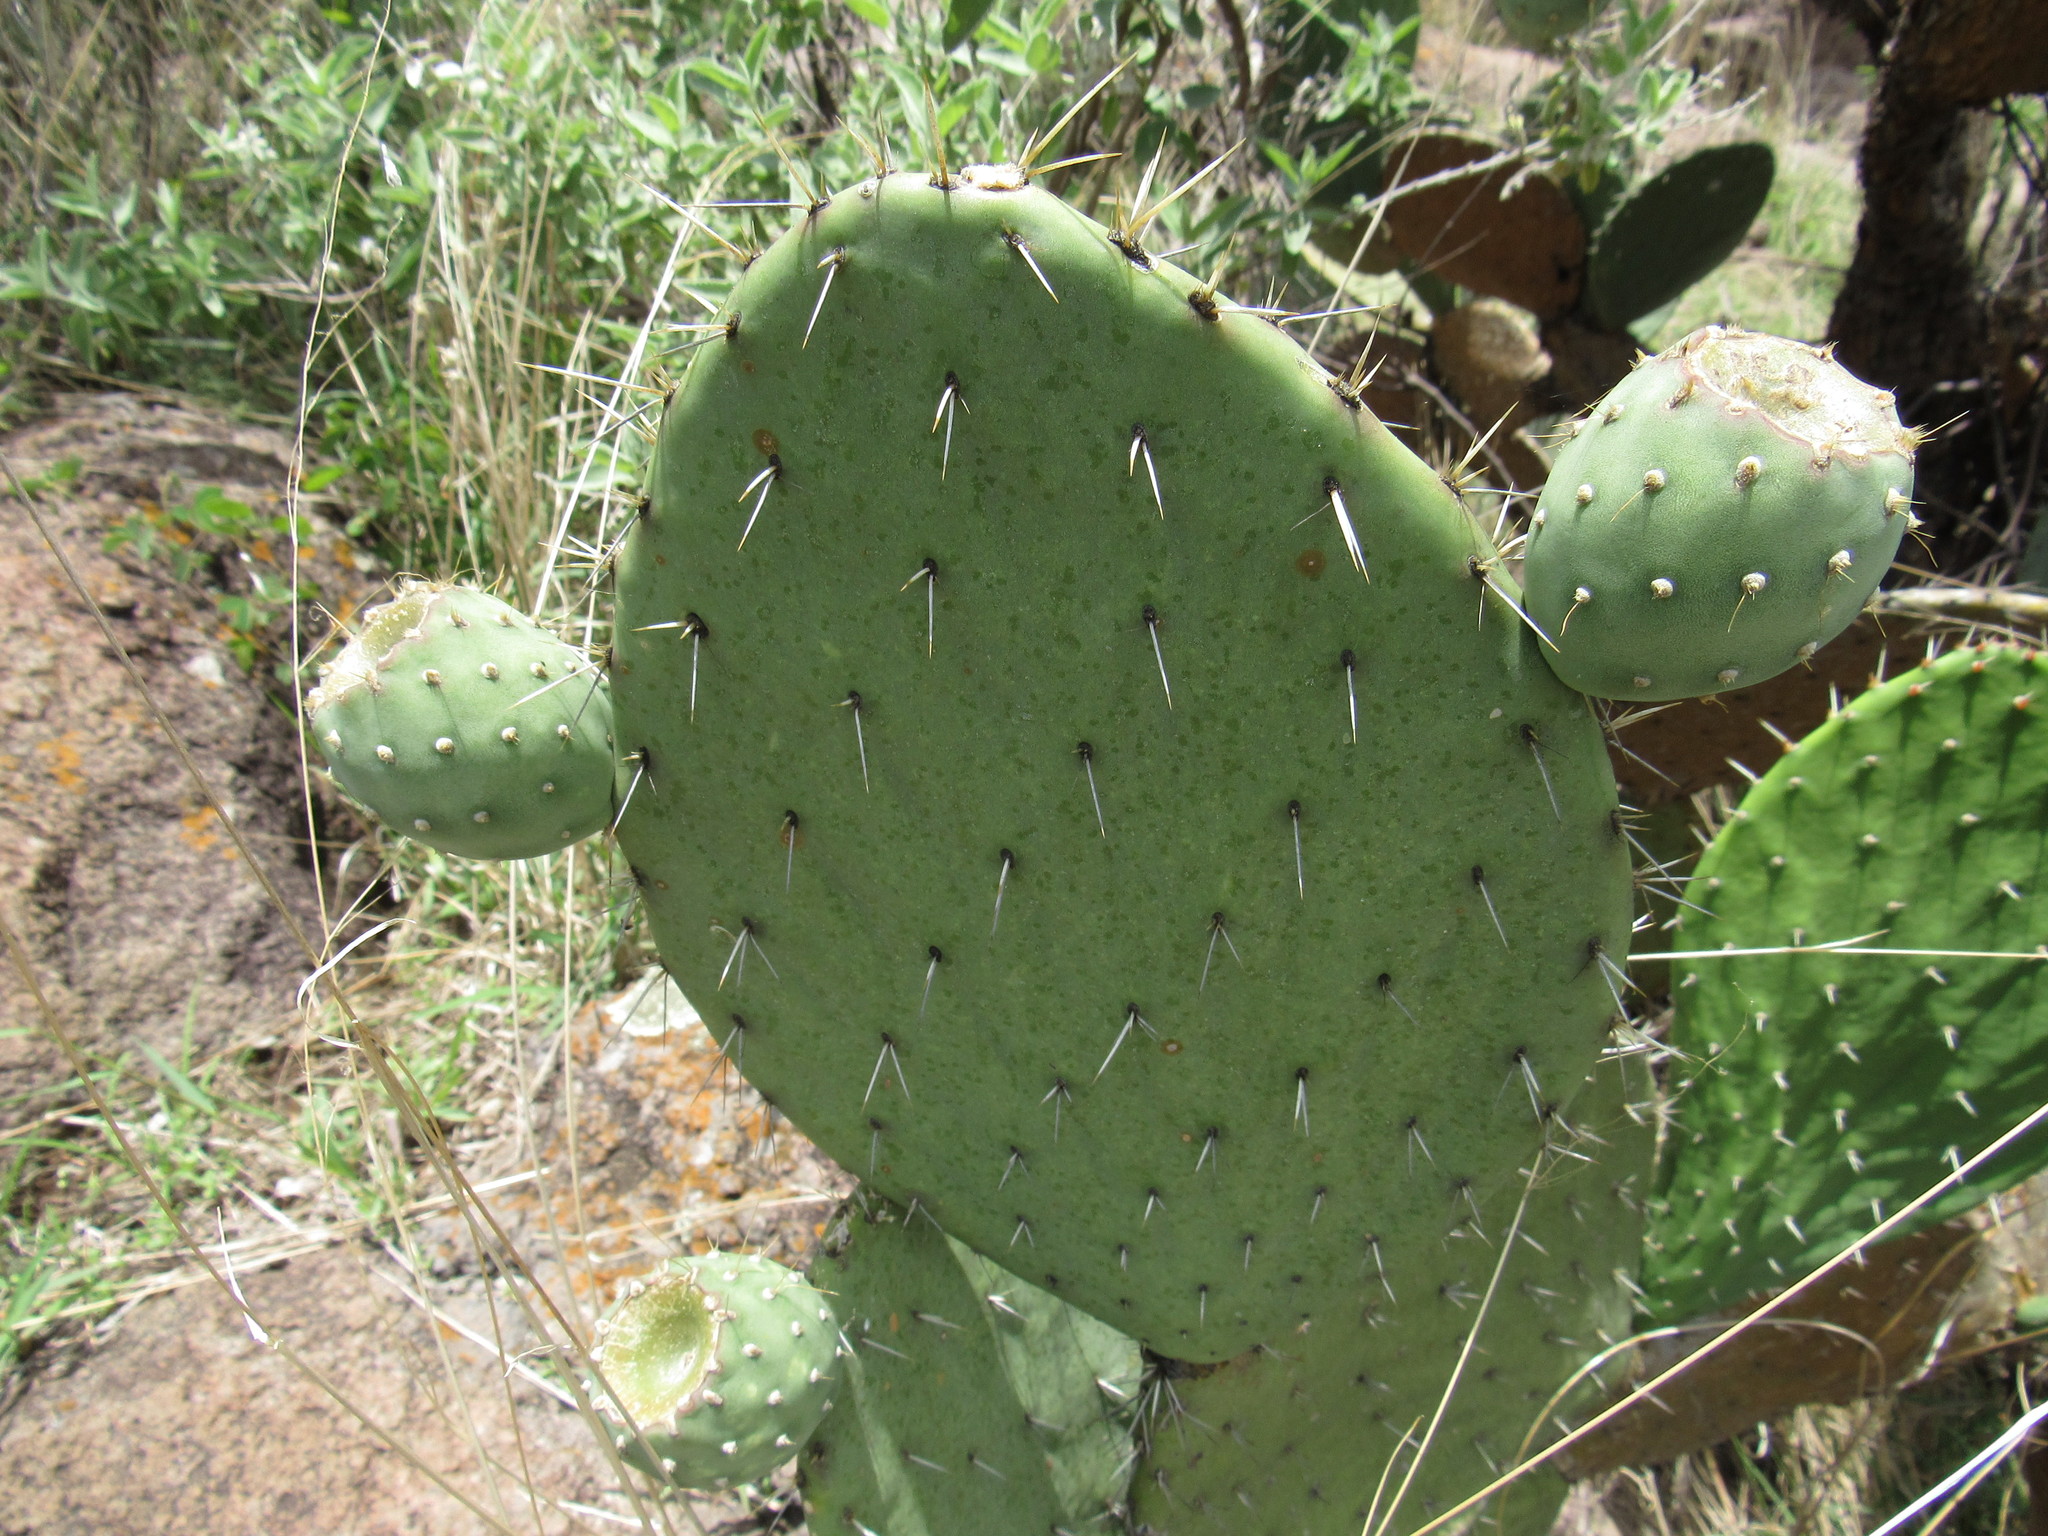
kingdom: Plantae
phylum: Tracheophyta
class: Magnoliopsida
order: Caryophyllales
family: Cactaceae
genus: Opuntia
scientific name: Opuntia lasiacantha
